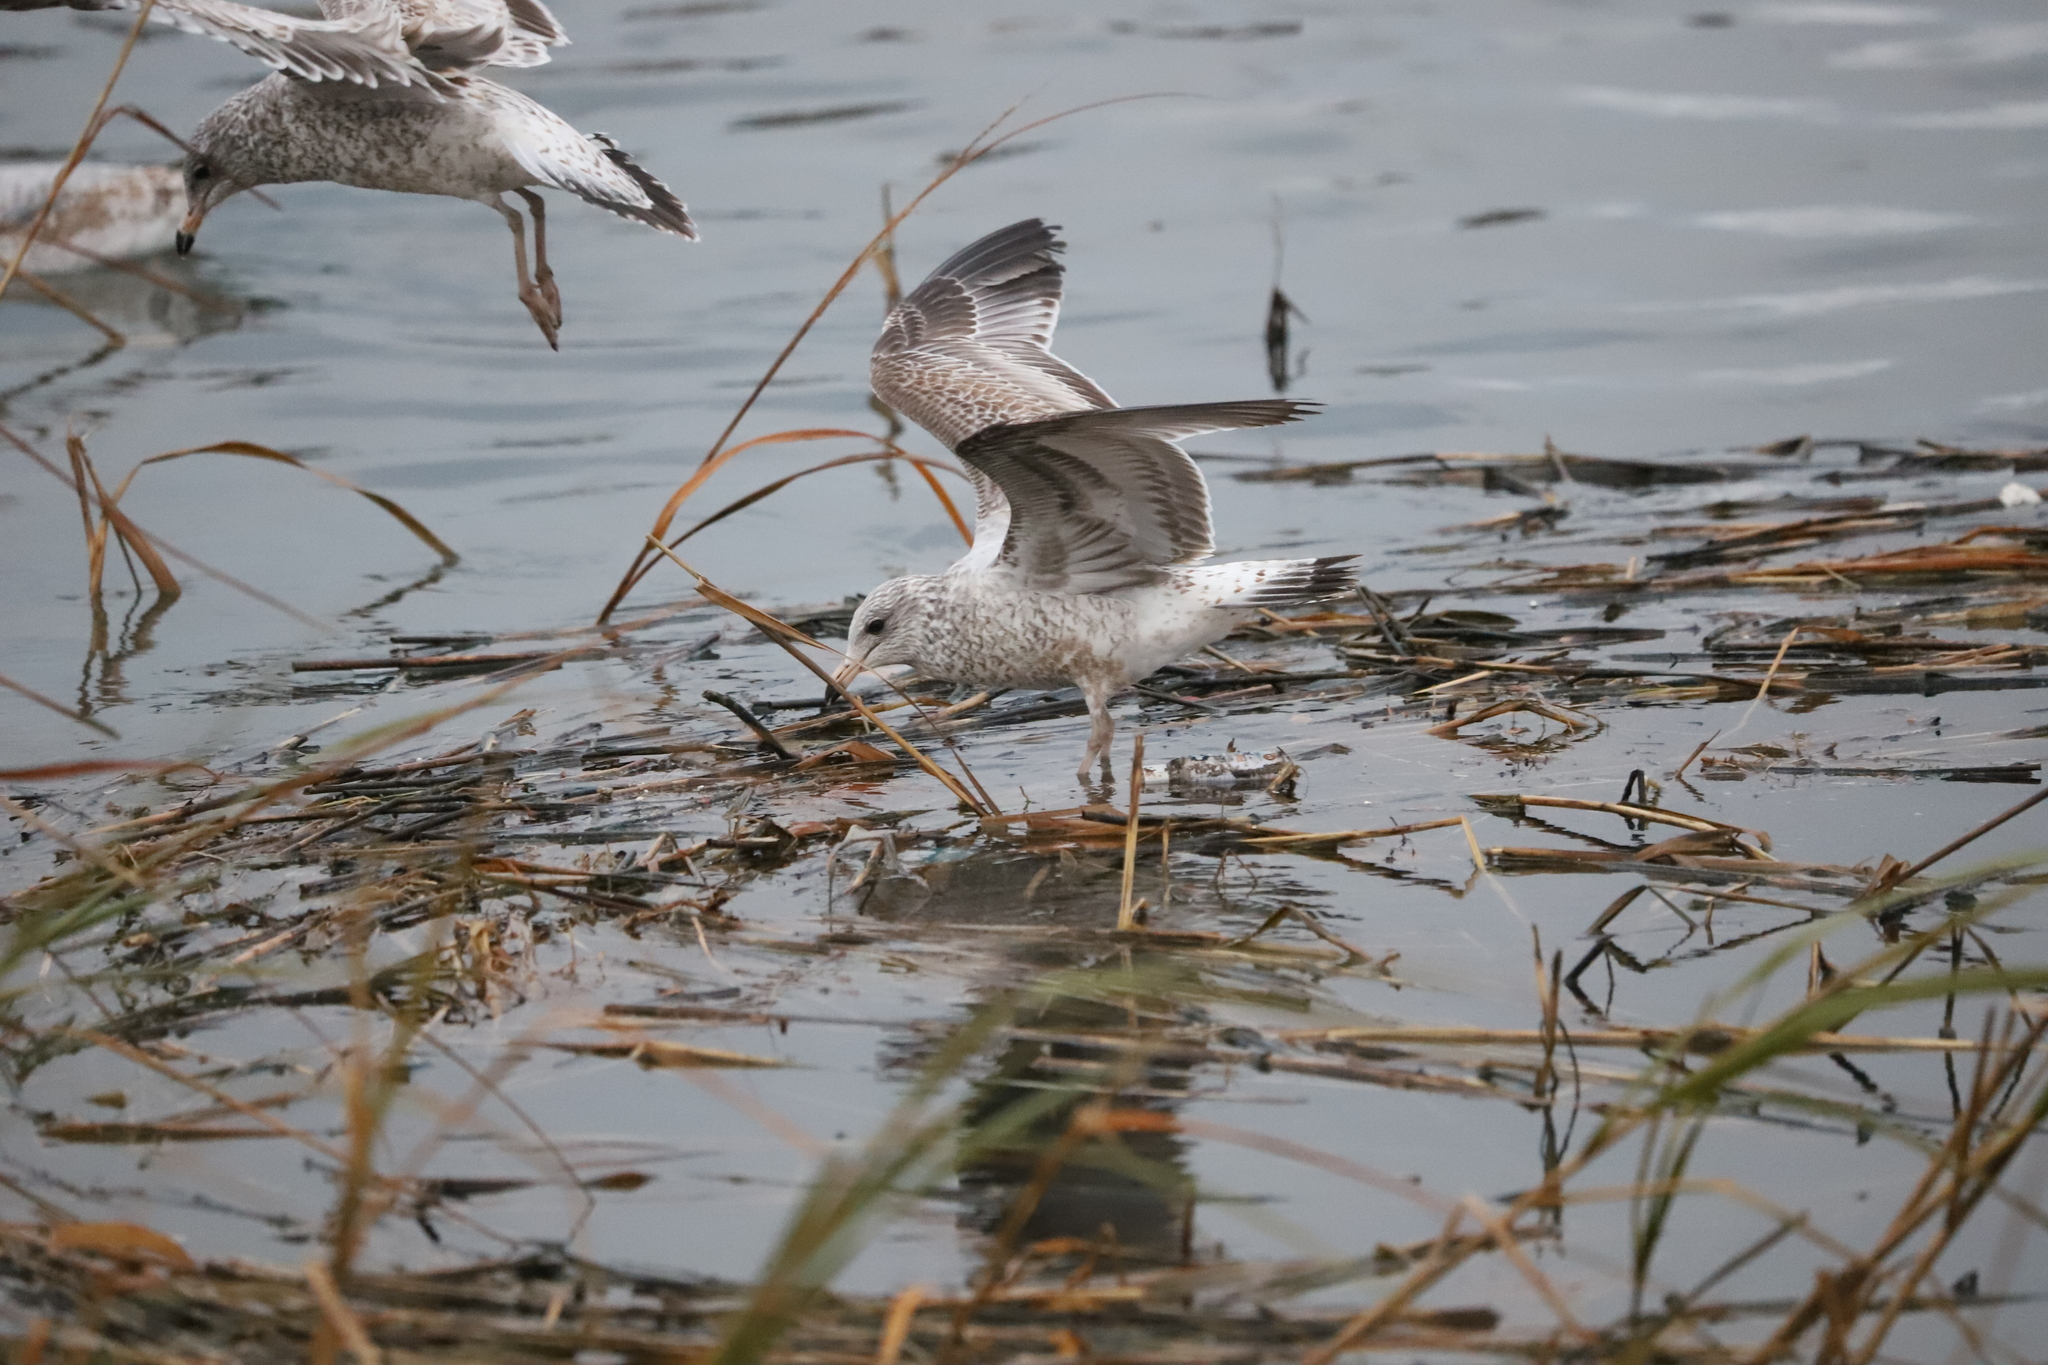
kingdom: Animalia
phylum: Chordata
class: Aves
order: Charadriiformes
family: Laridae
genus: Larus
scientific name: Larus delawarensis
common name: Ring-billed gull
